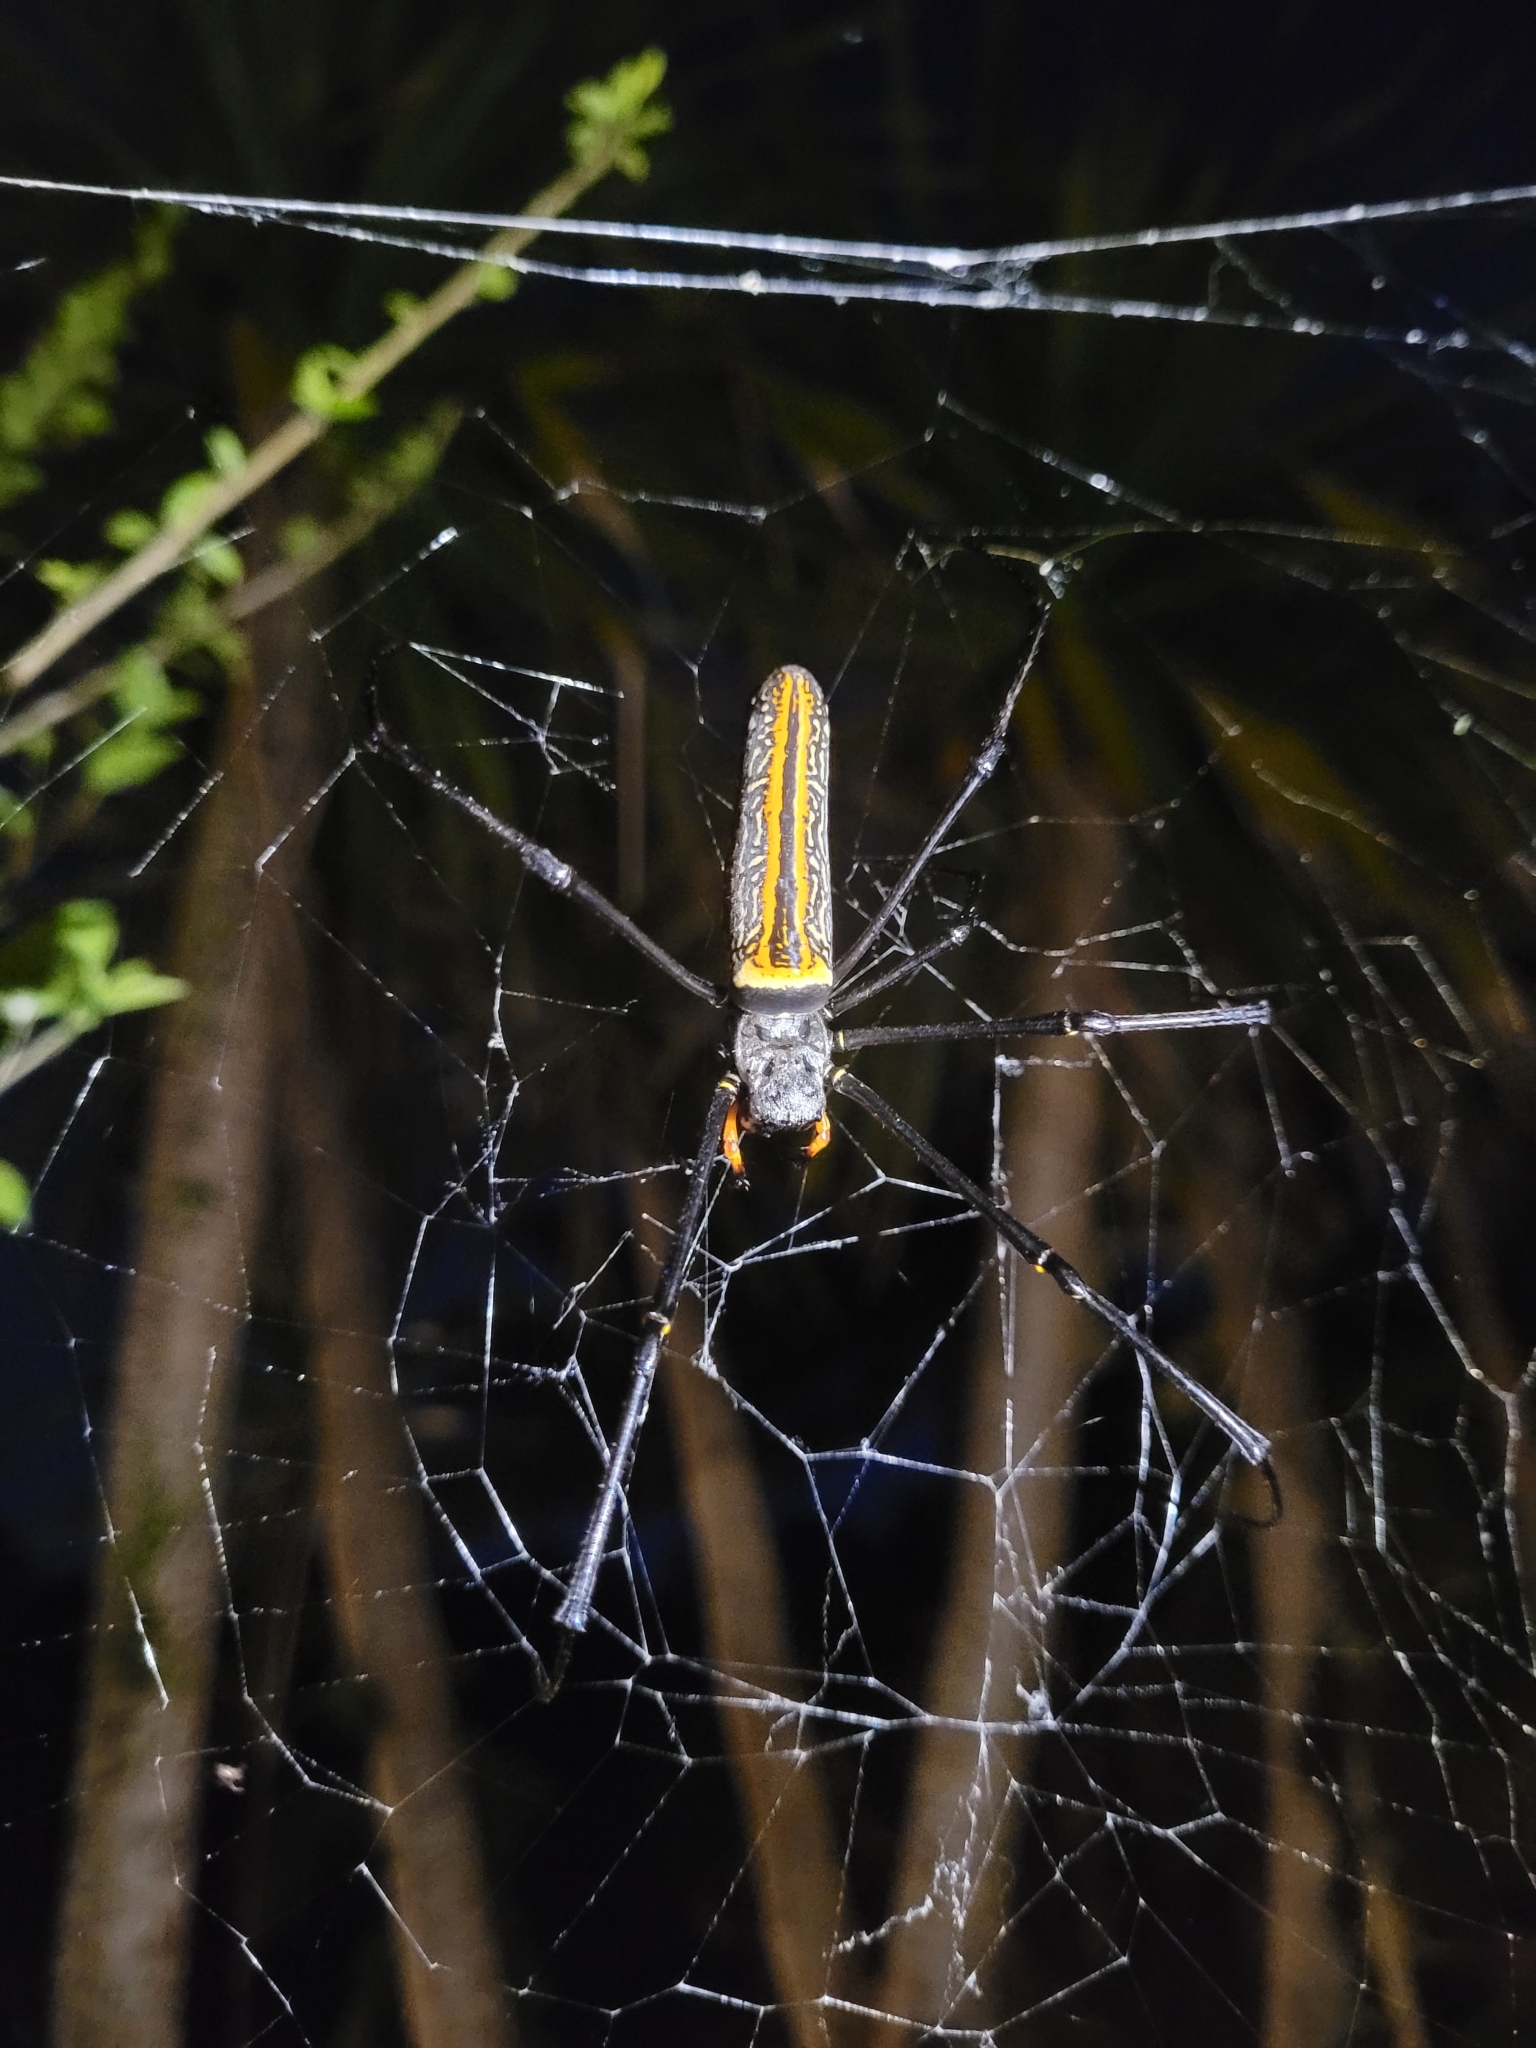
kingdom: Animalia
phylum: Arthropoda
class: Arachnida
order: Araneae
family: Araneidae
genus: Nephila
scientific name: Nephila pilipes
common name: Giant golden orb weaver
